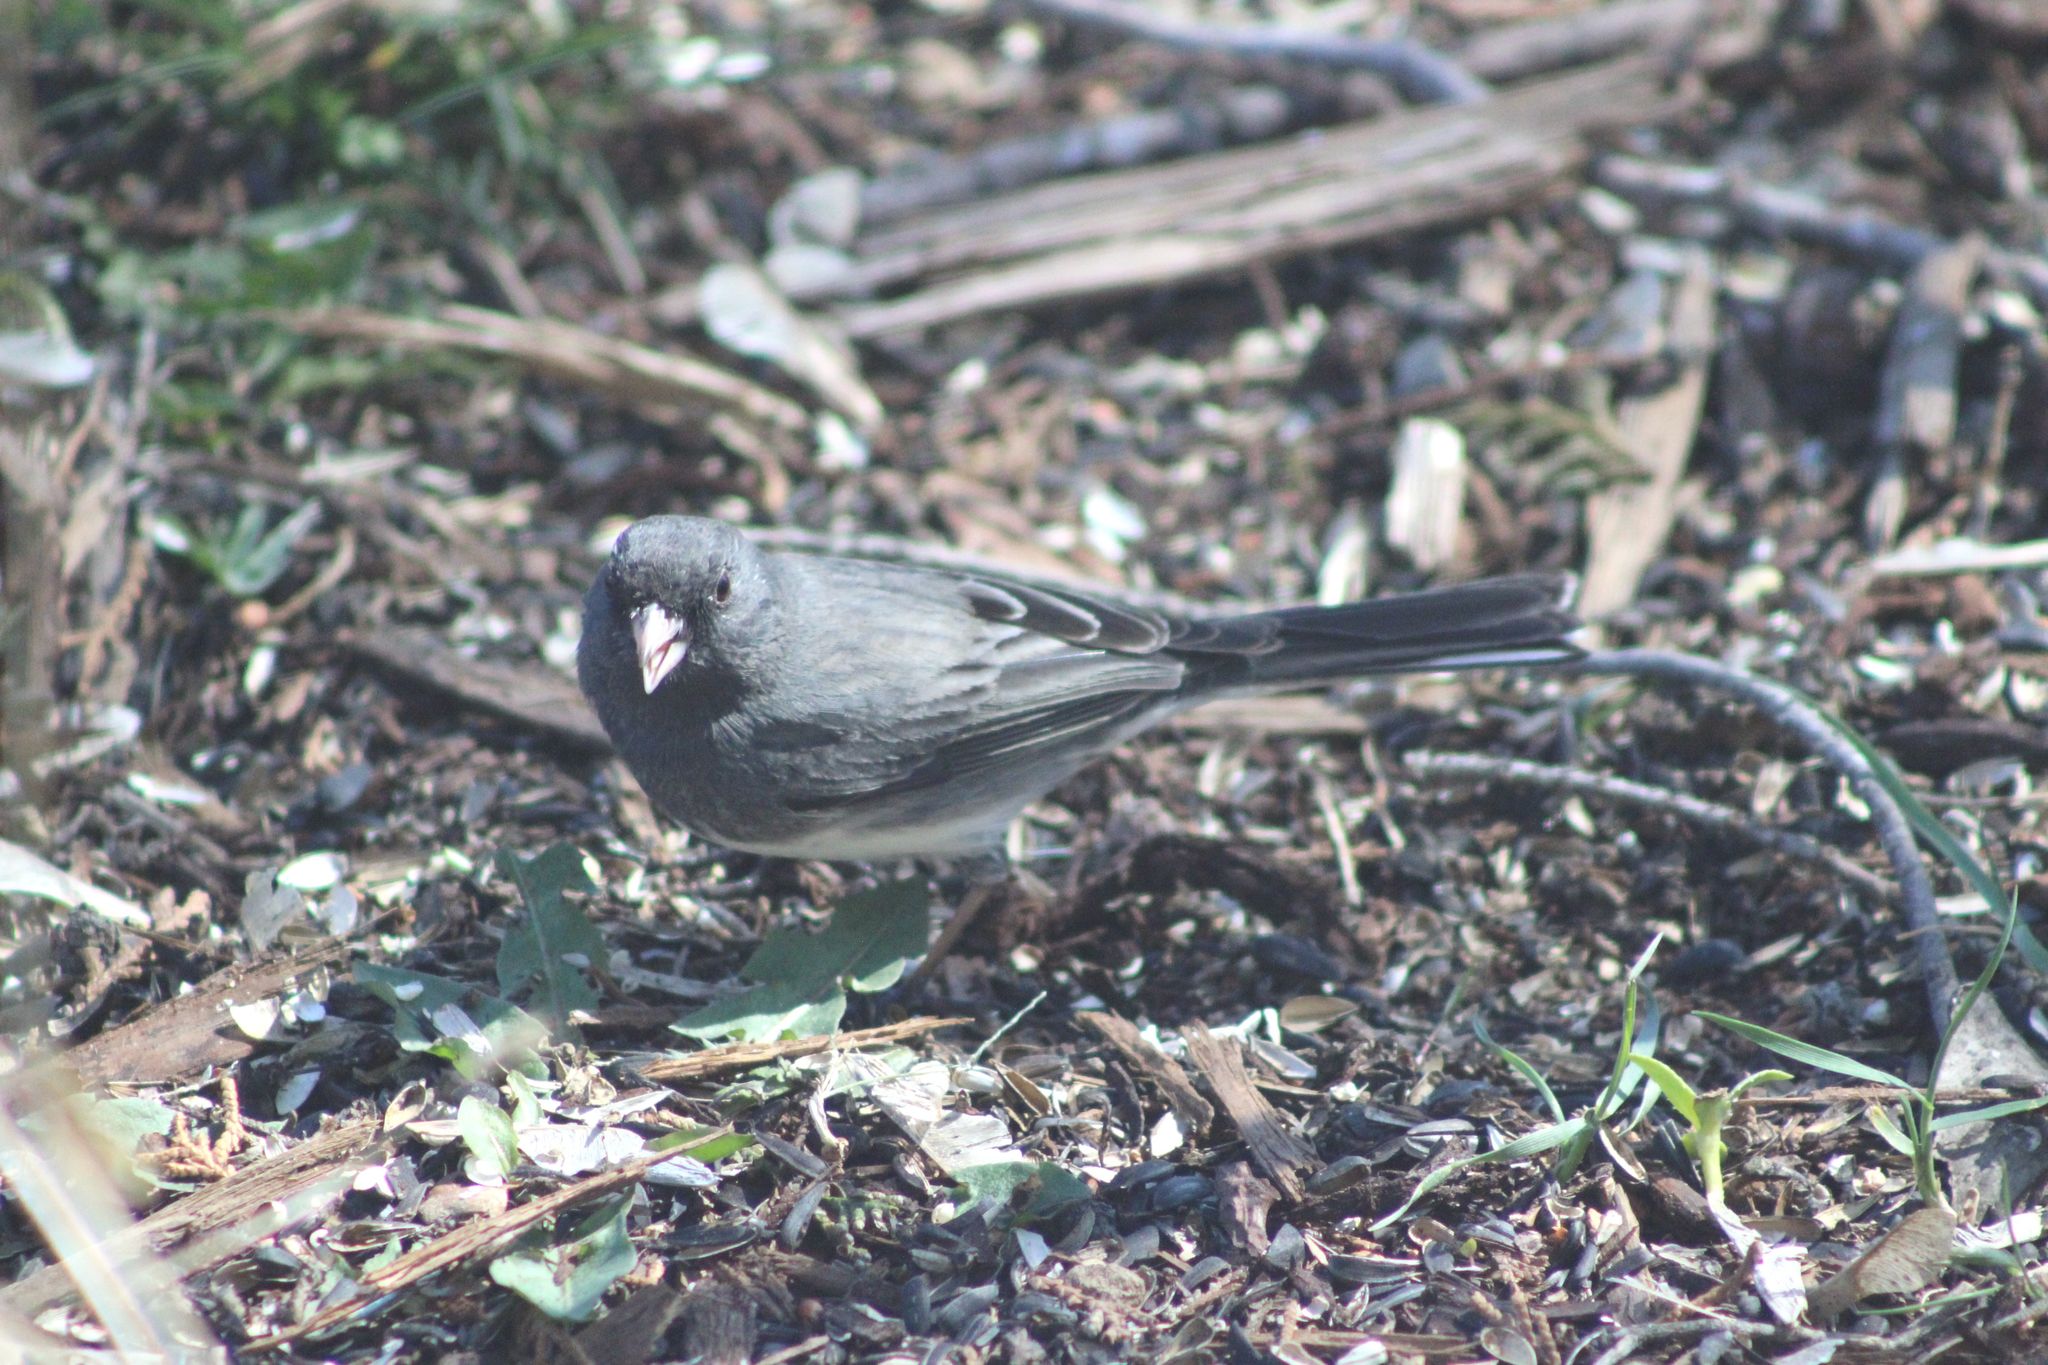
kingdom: Animalia
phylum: Chordata
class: Aves
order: Passeriformes
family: Passerellidae
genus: Junco
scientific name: Junco hyemalis
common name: Dark-eyed junco
